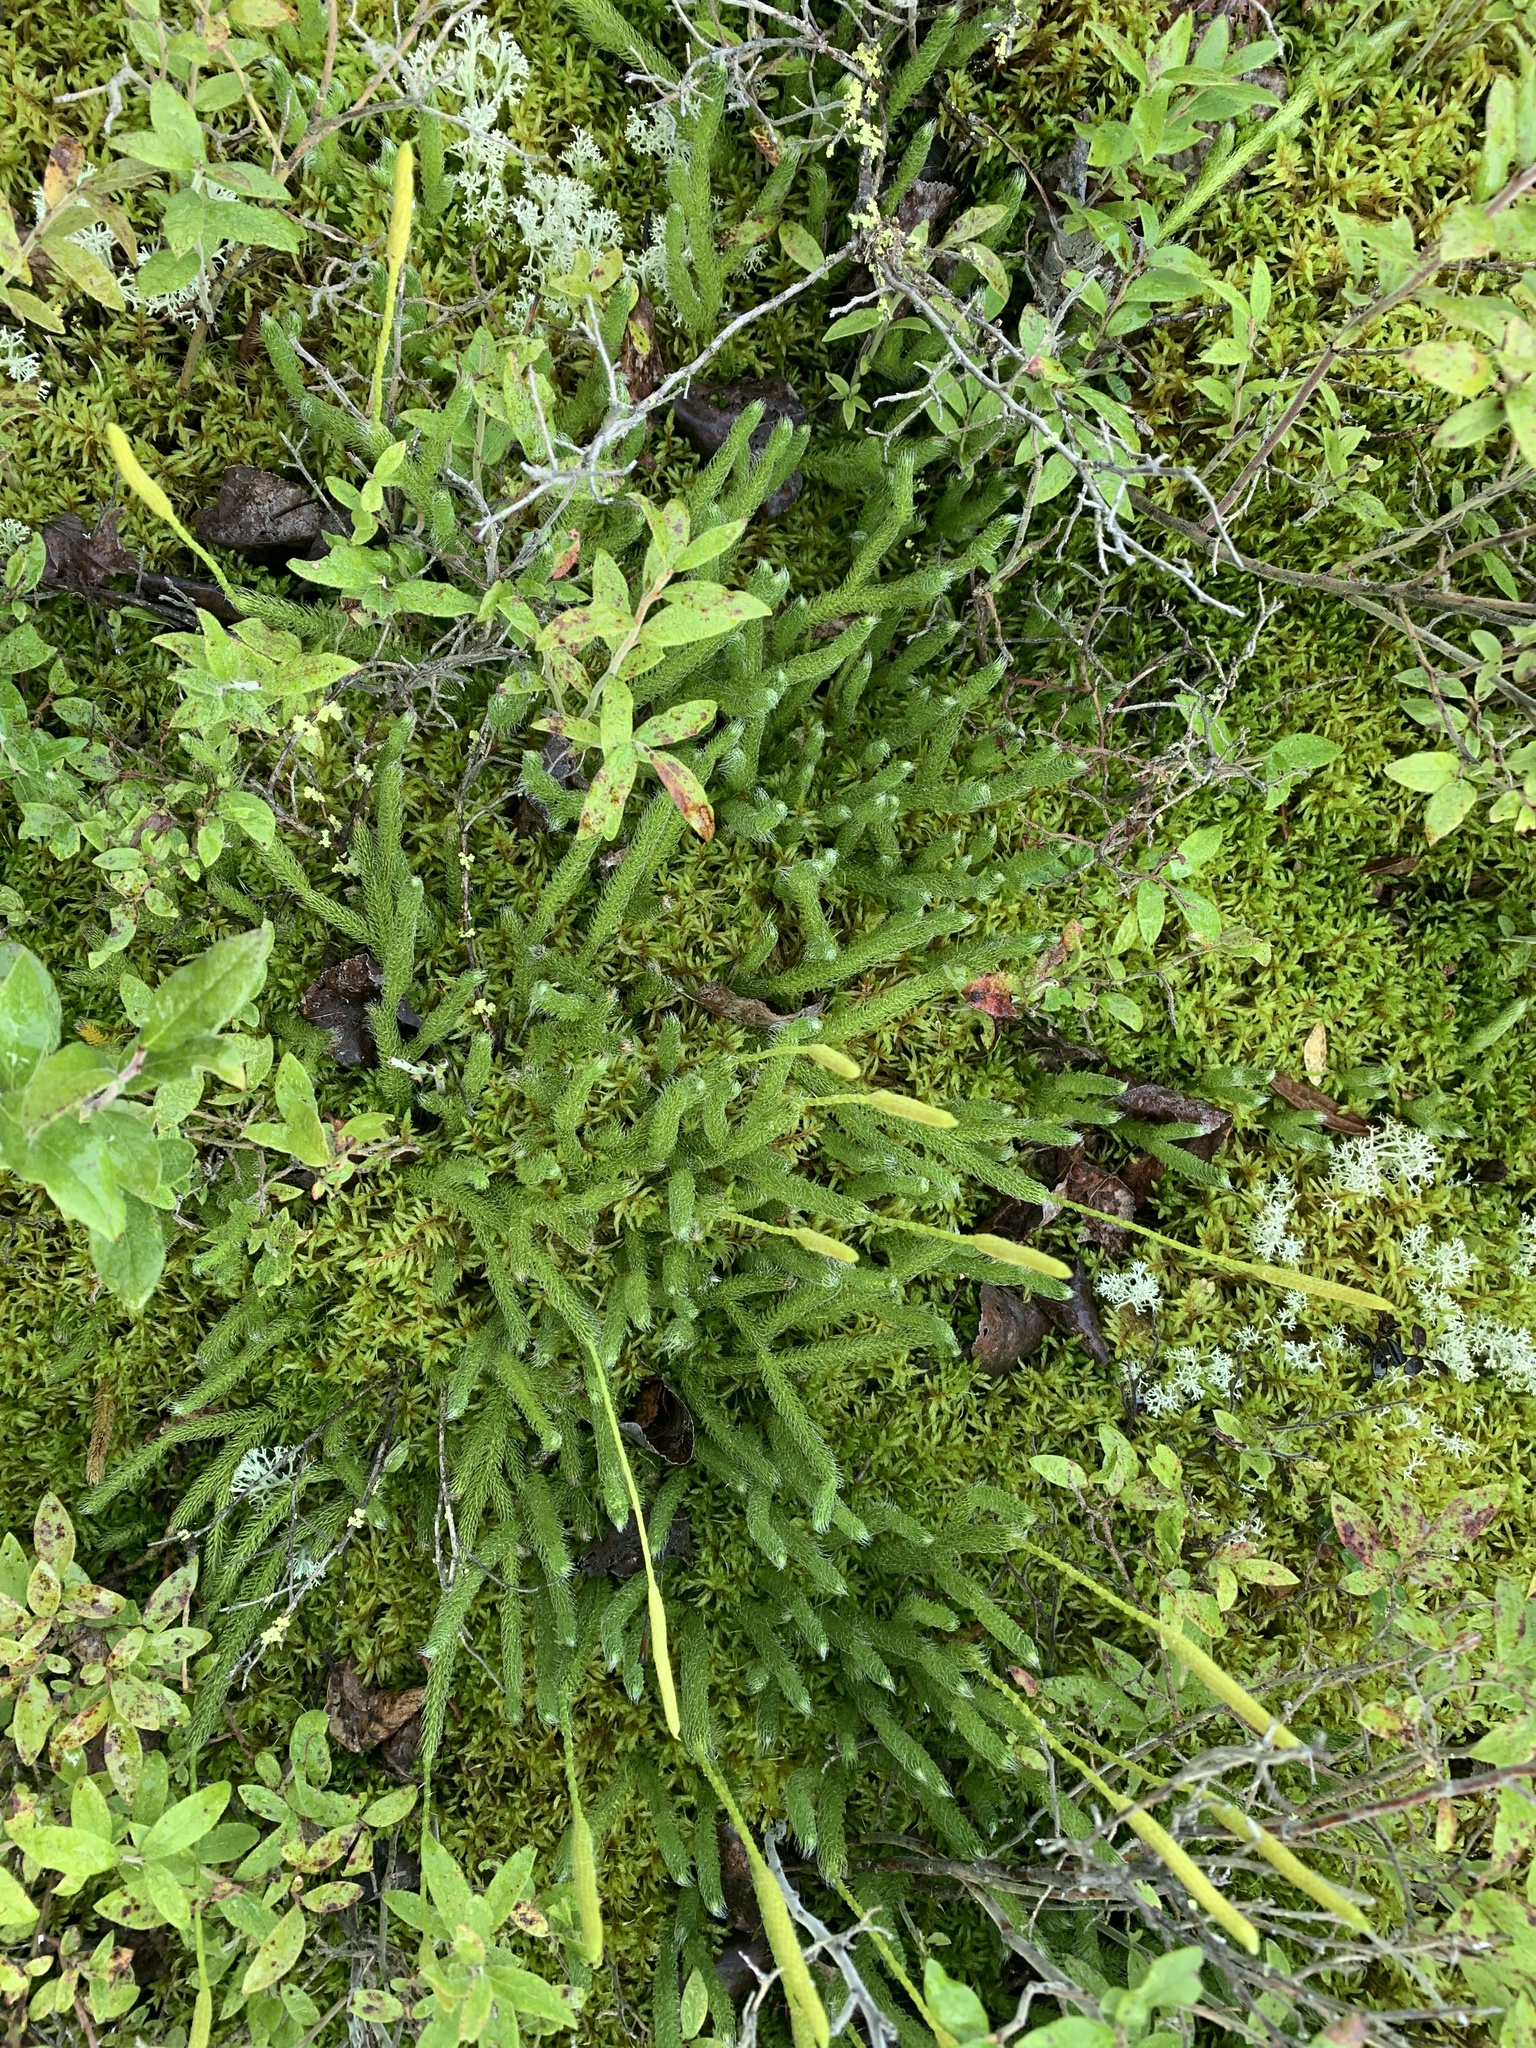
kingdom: Plantae
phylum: Tracheophyta
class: Lycopodiopsida
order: Lycopodiales
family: Lycopodiaceae
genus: Lycopodium
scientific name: Lycopodium lagopus
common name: One-cone clubmoss
